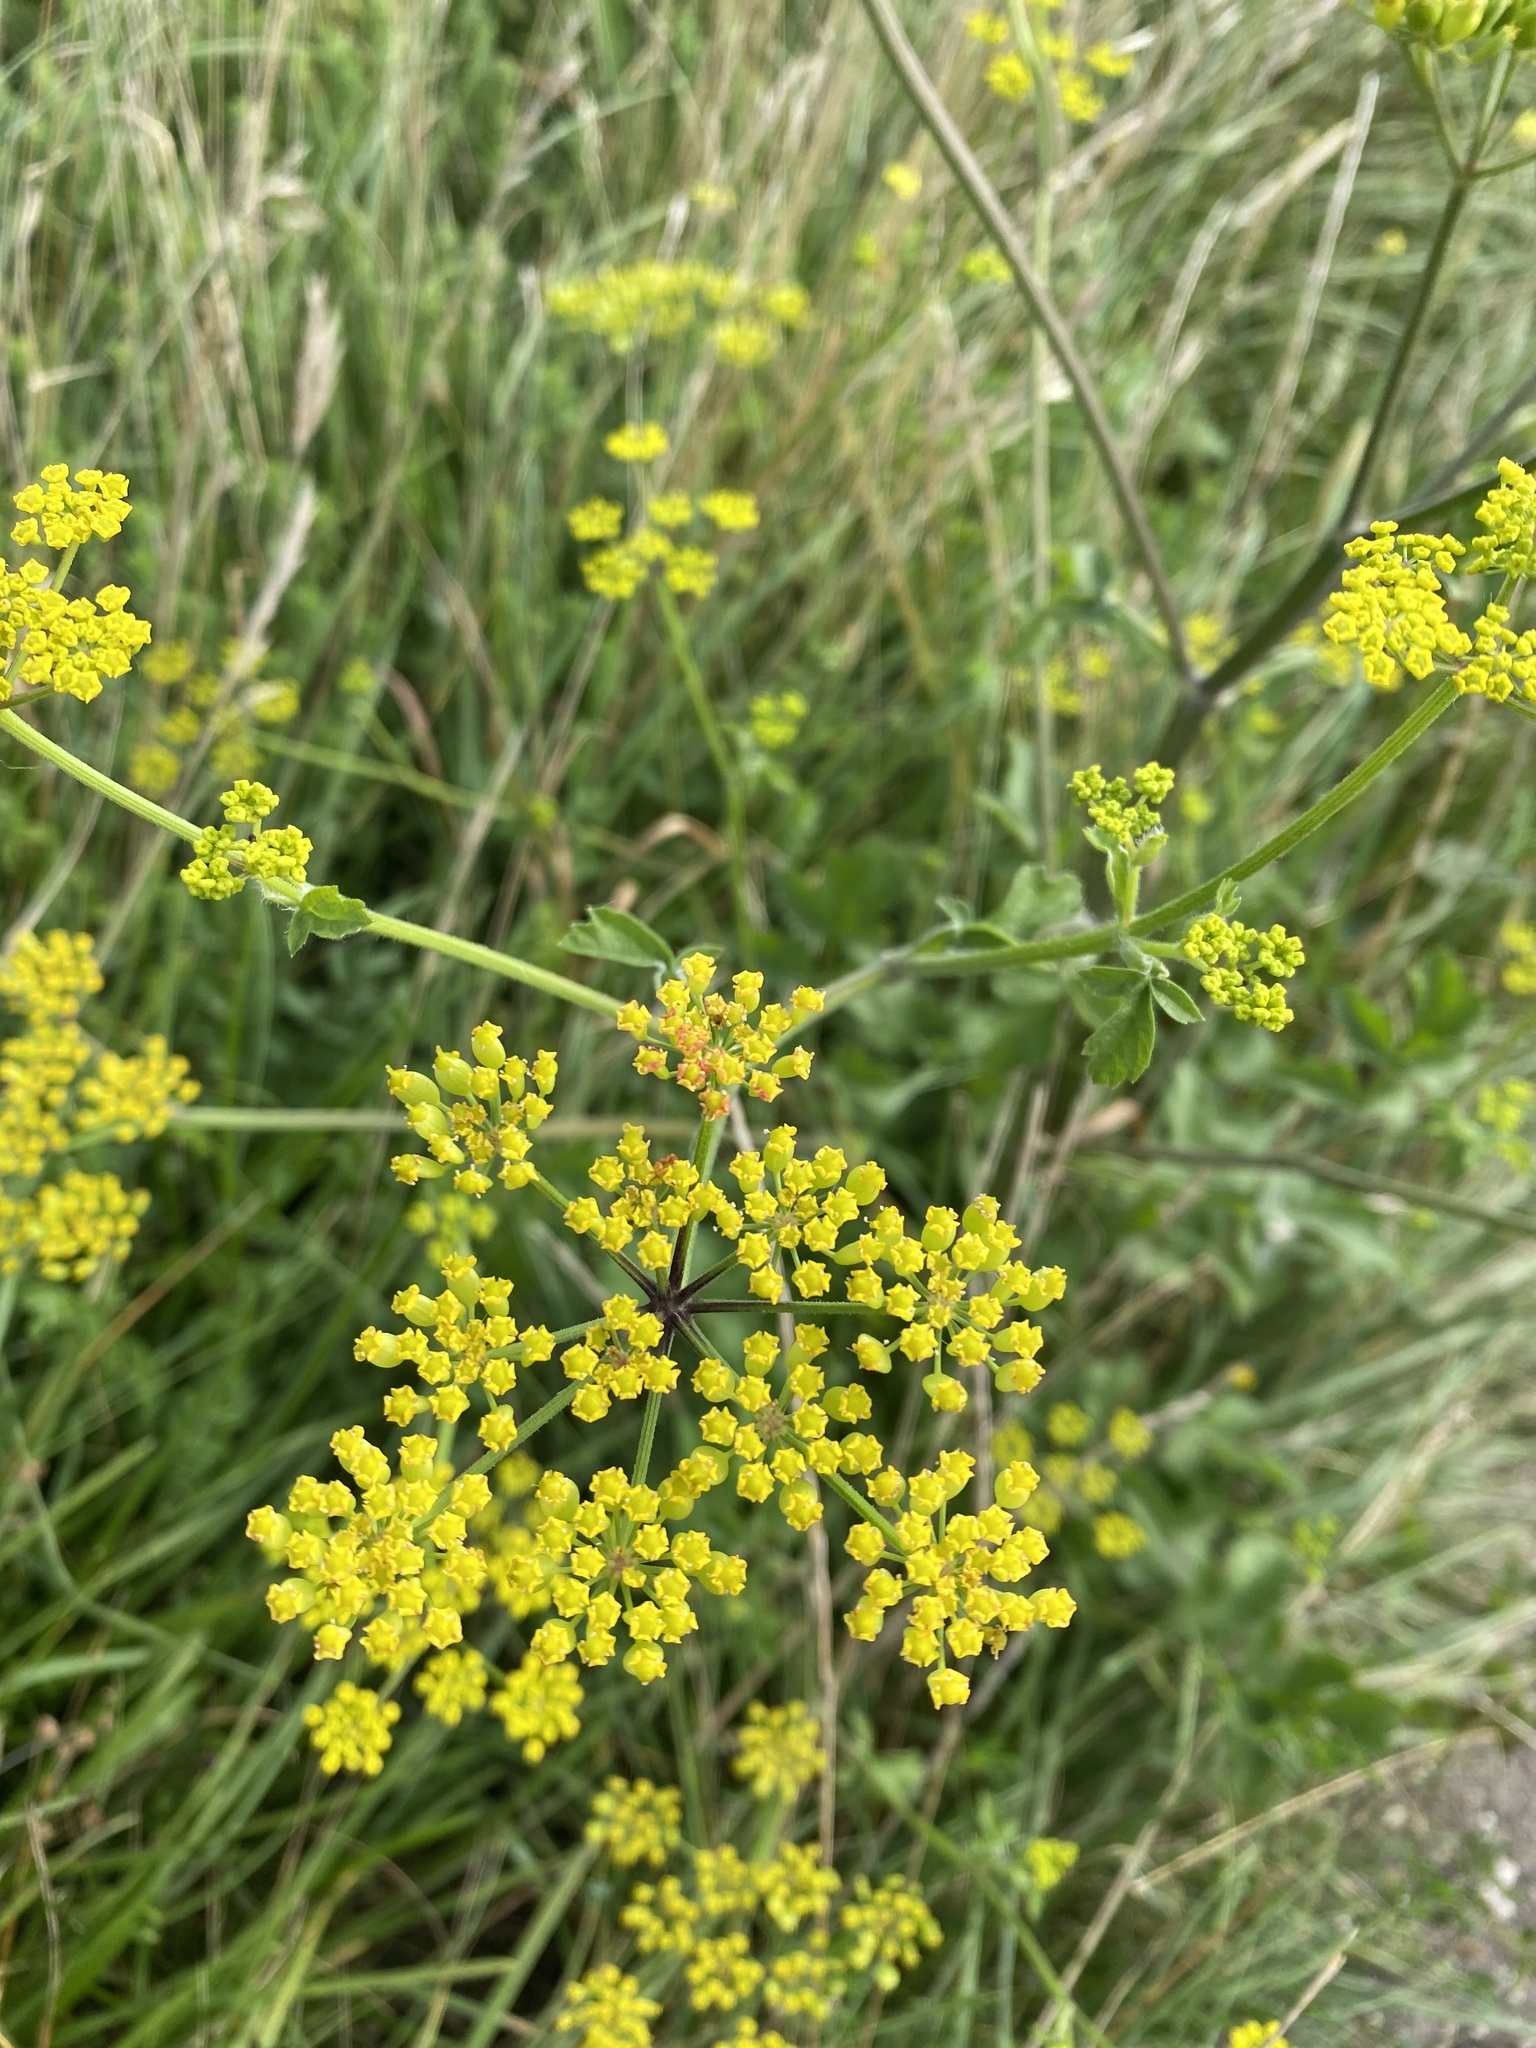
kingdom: Plantae
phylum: Tracheophyta
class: Magnoliopsida
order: Apiales
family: Apiaceae
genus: Pastinaca
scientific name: Pastinaca sativa
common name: Wild parsnip
